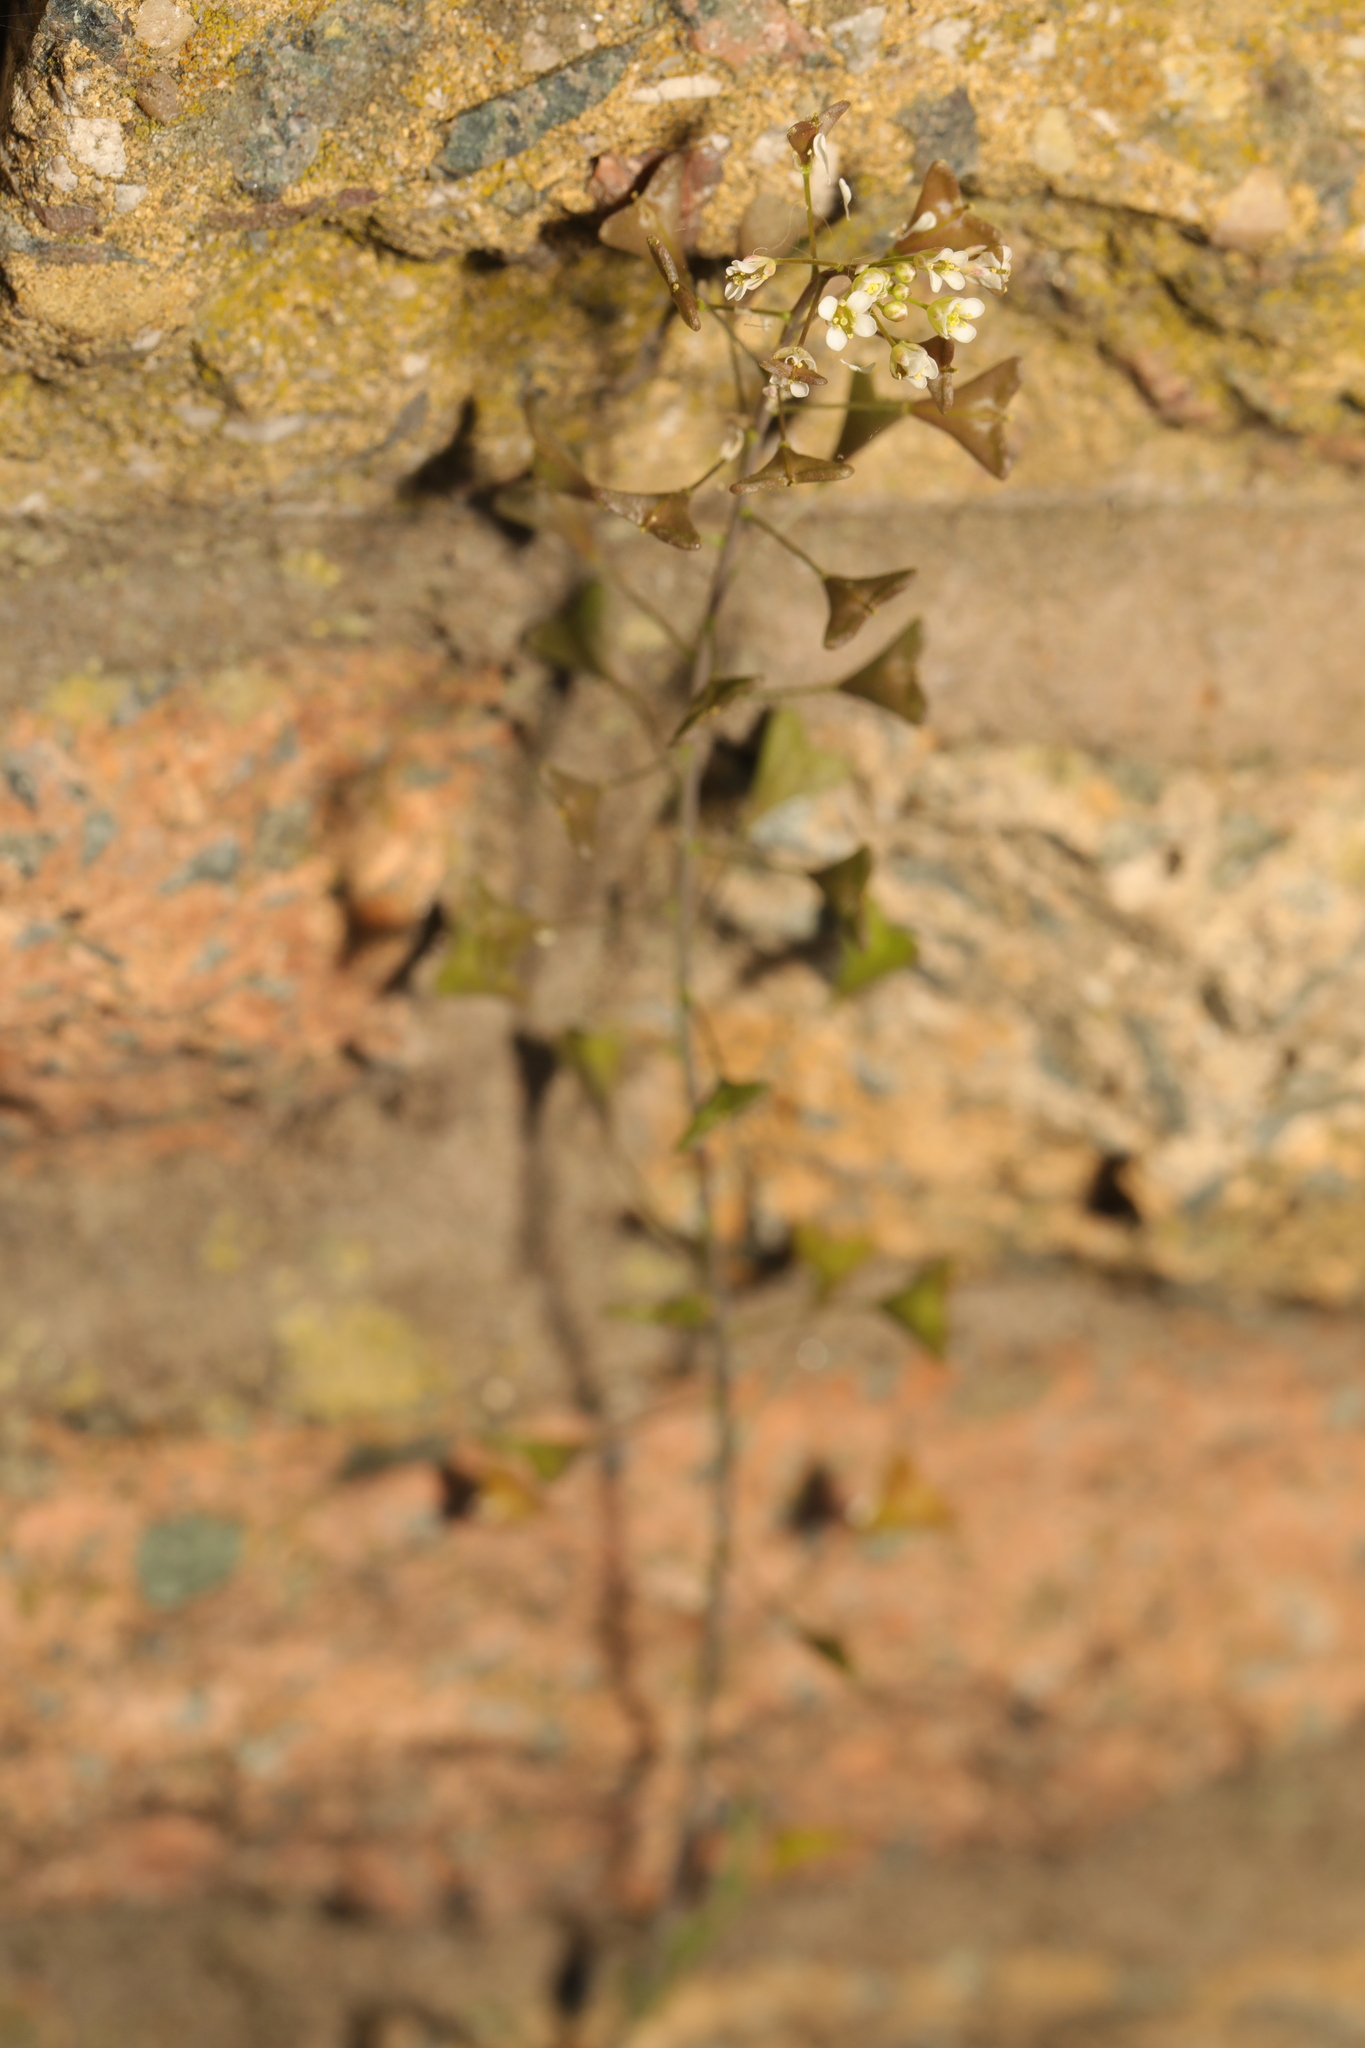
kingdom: Plantae
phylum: Tracheophyta
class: Magnoliopsida
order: Brassicales
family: Brassicaceae
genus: Capsella
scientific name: Capsella bursa-pastoris
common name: Shepherd's purse
